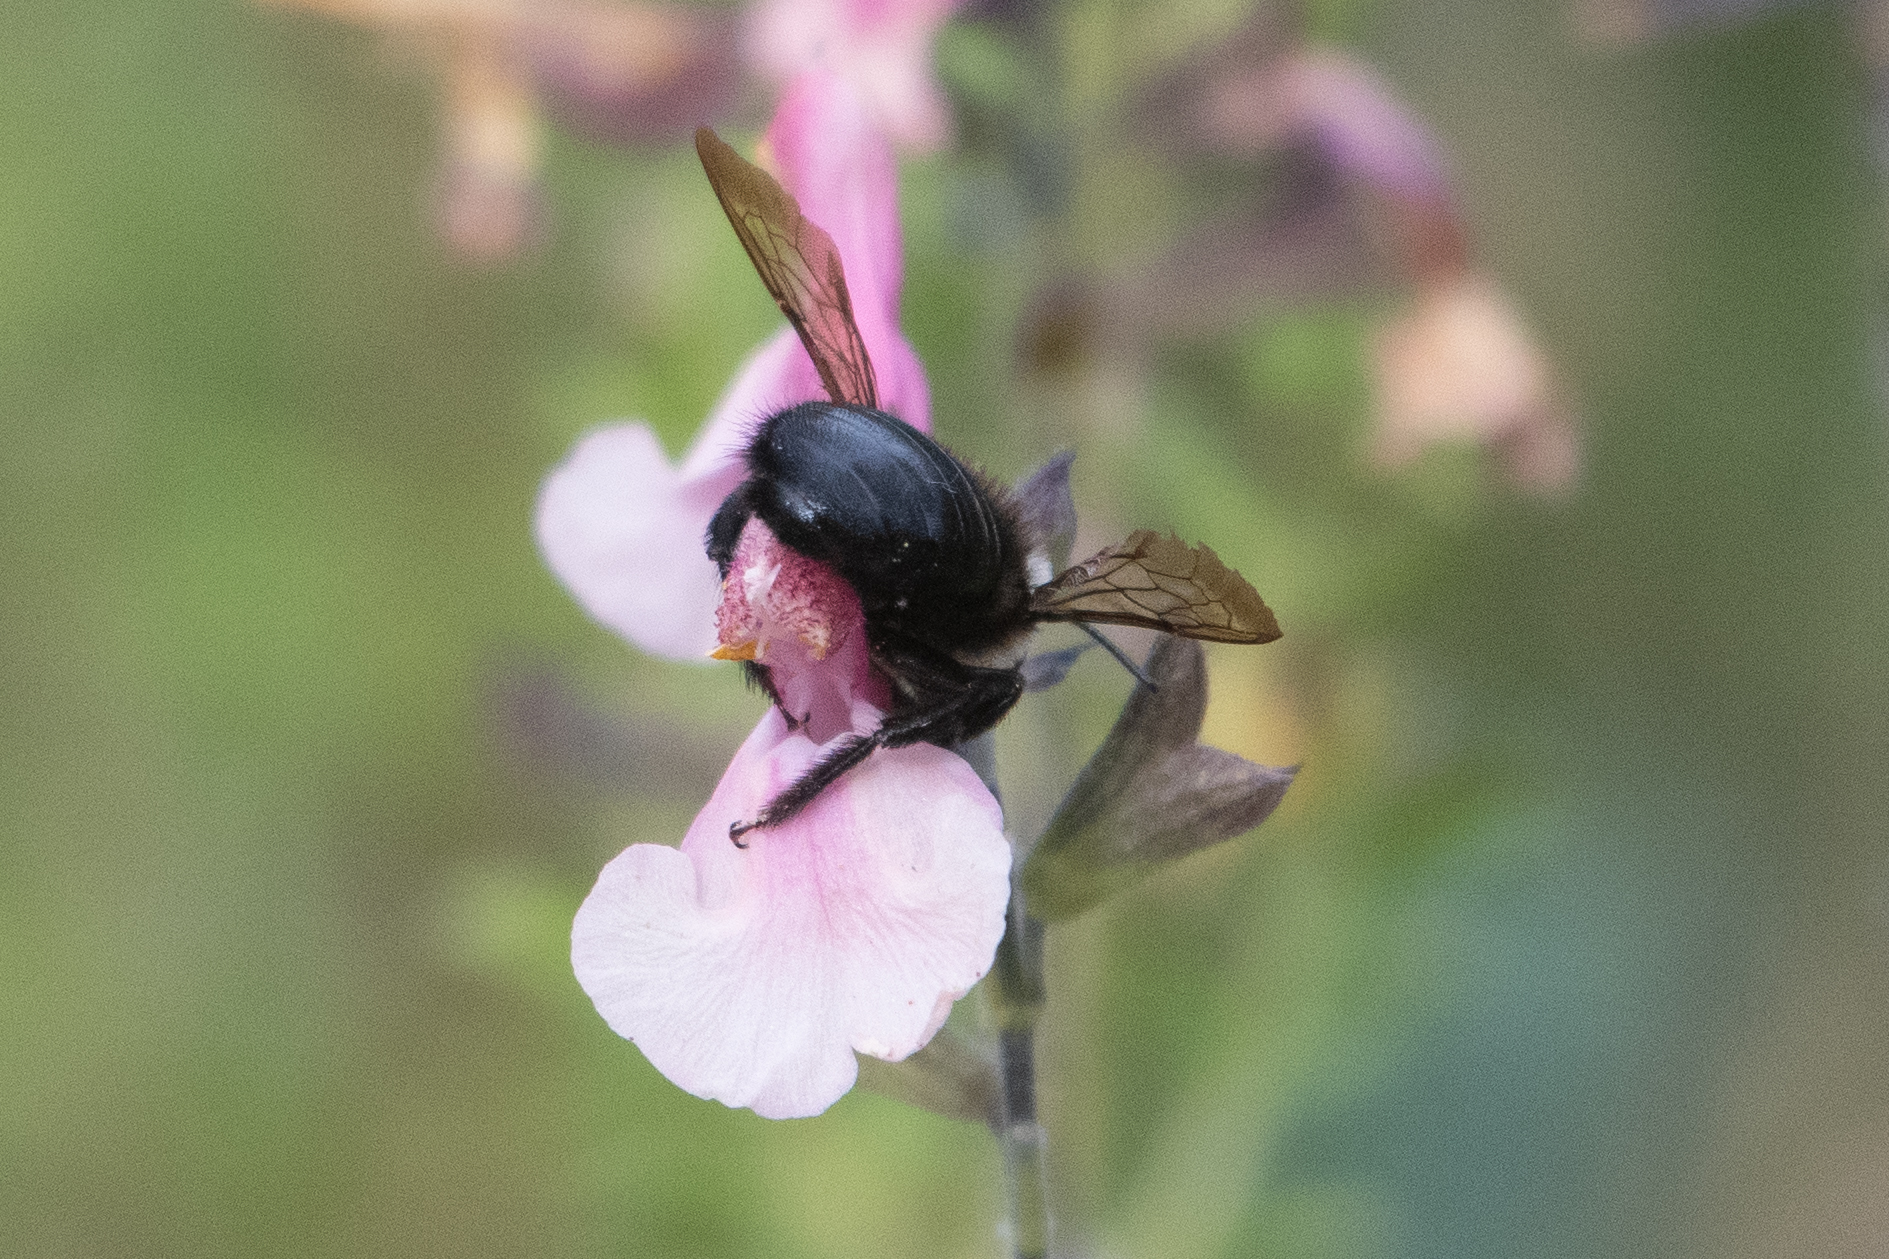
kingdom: Animalia
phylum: Arthropoda
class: Insecta
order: Hymenoptera
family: Apidae
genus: Xylocopa
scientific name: Xylocopa tabaniformis
